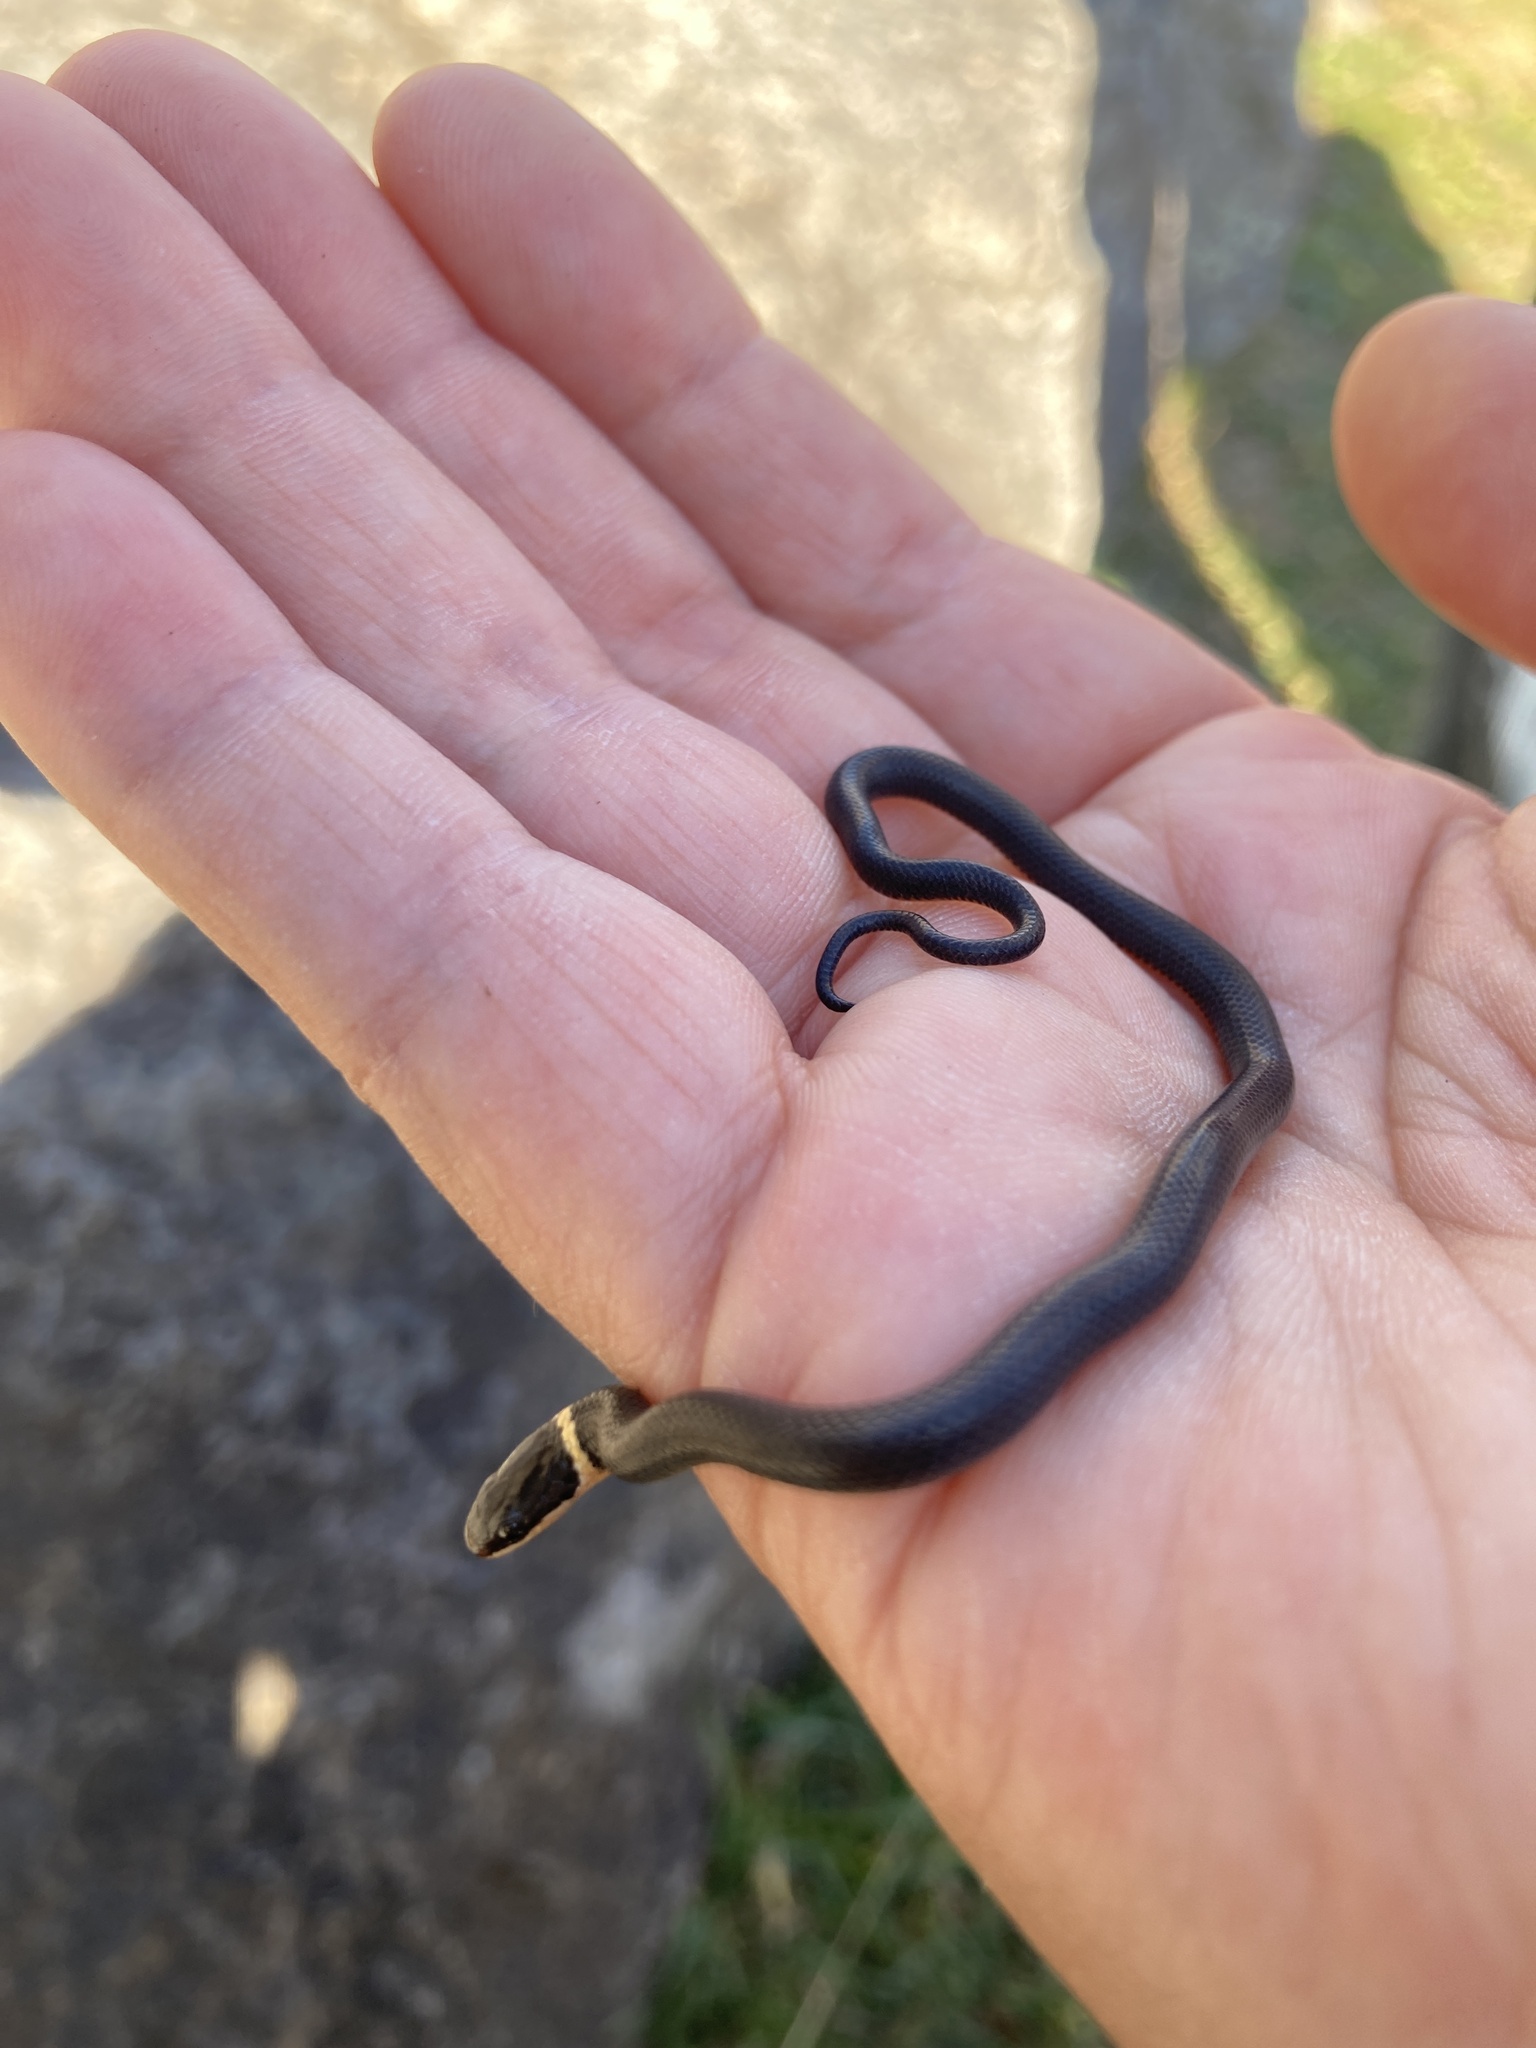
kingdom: Animalia
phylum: Chordata
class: Squamata
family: Colubridae
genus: Diadophis
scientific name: Diadophis punctatus
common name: Ringneck snake
